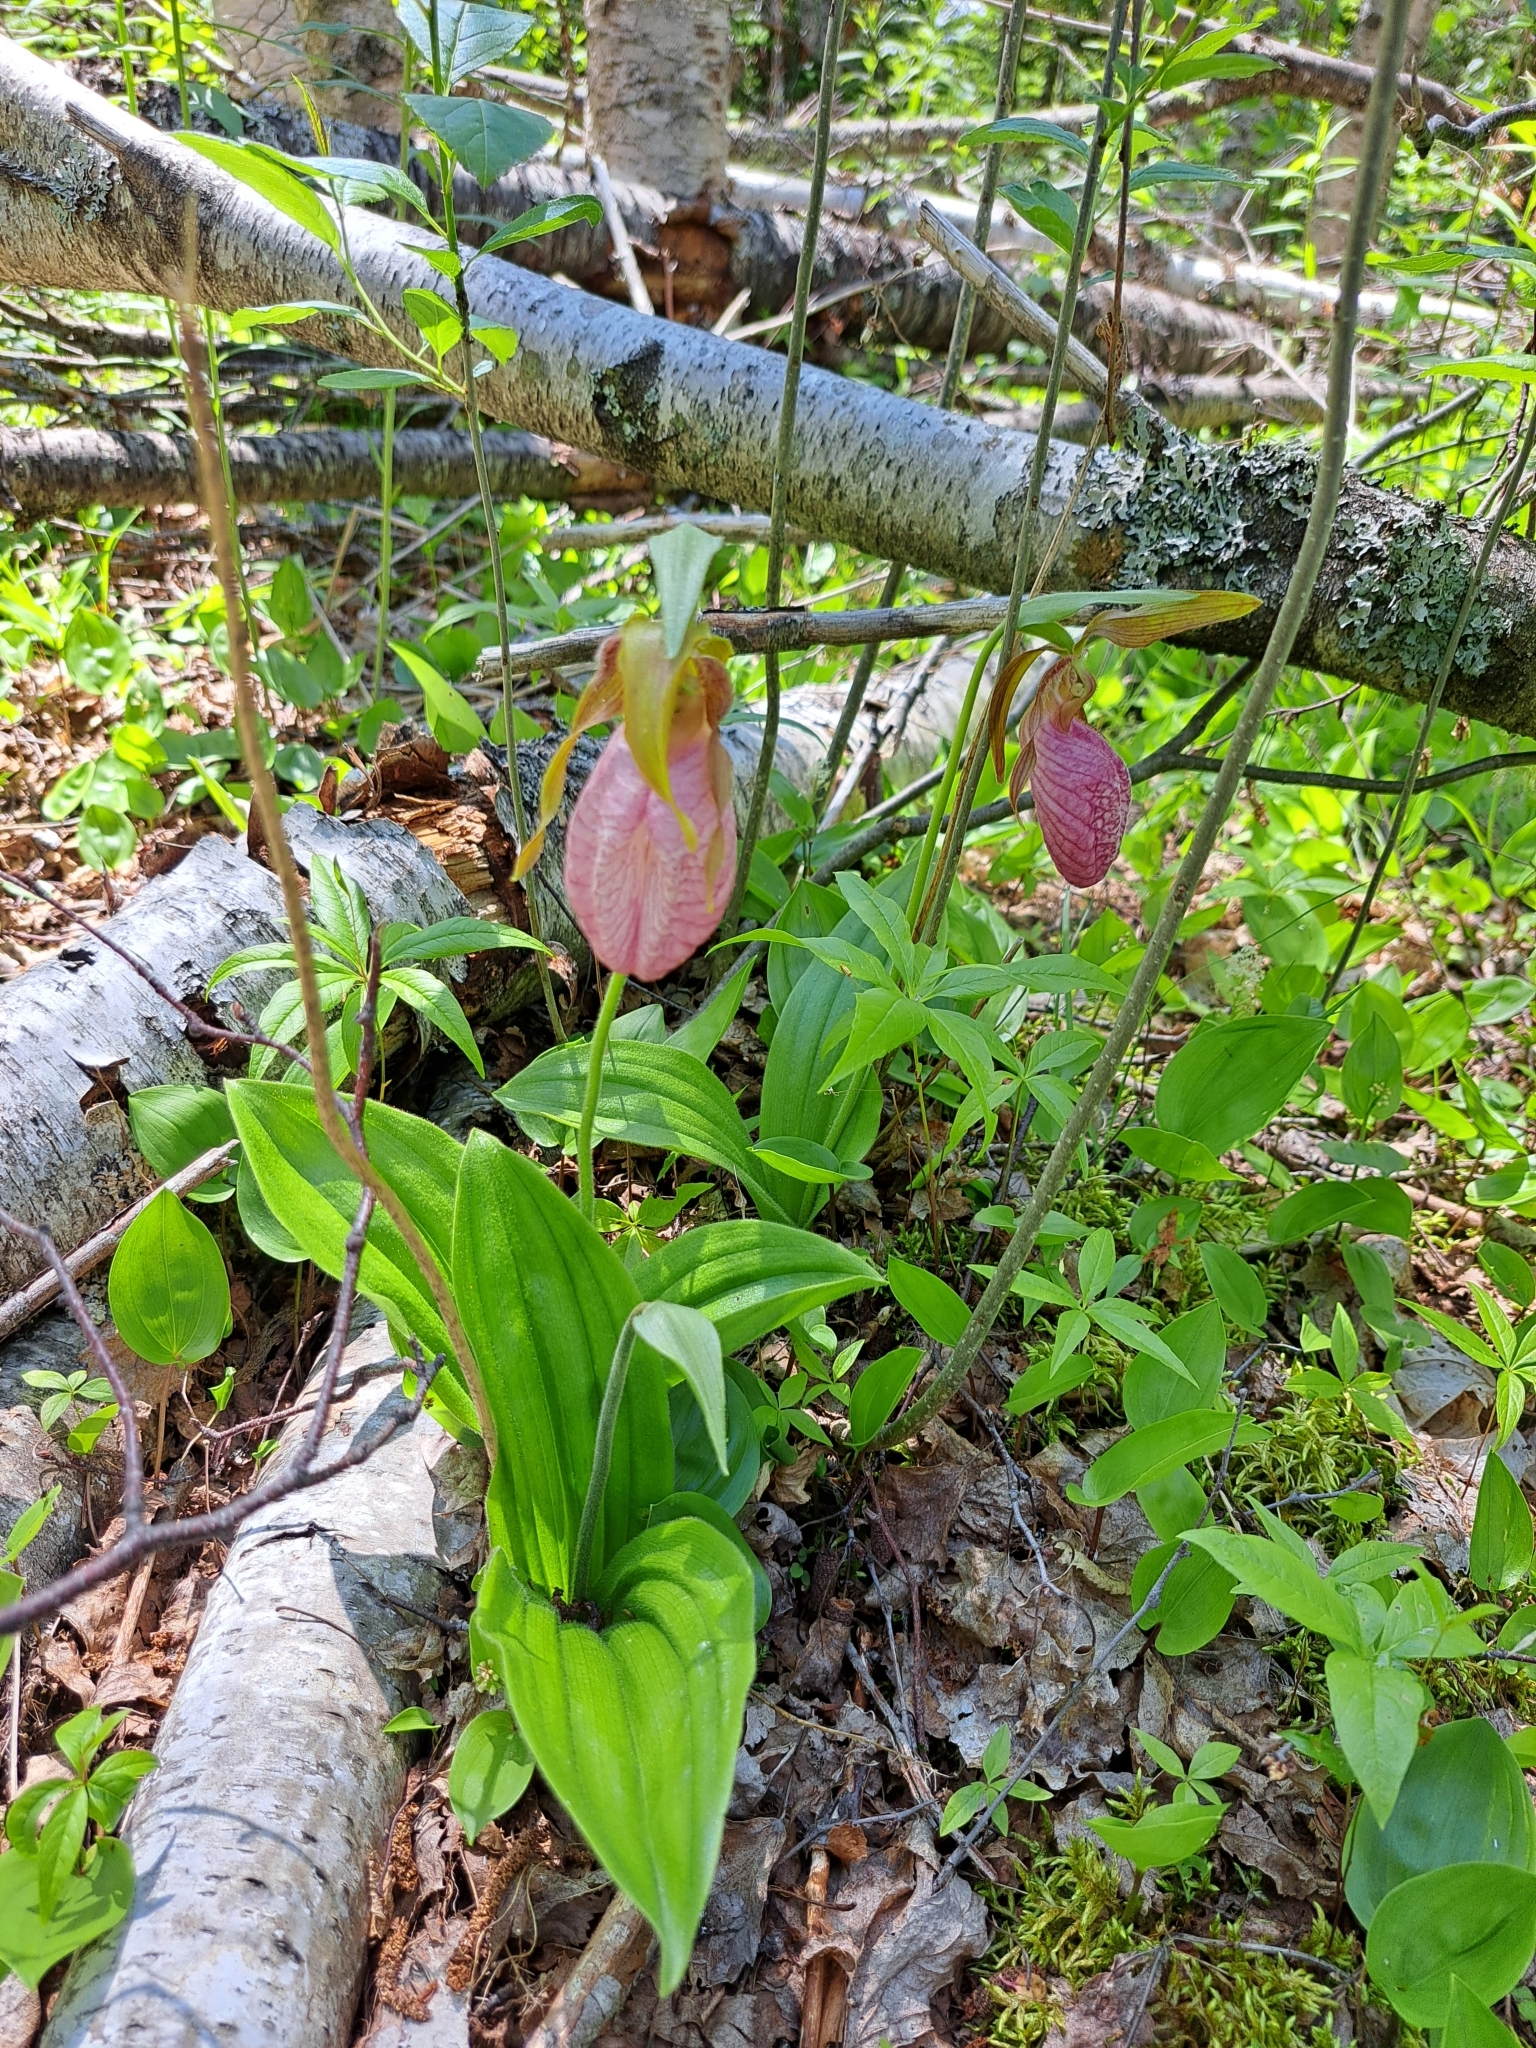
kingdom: Plantae
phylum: Tracheophyta
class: Liliopsida
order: Asparagales
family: Orchidaceae
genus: Cypripedium
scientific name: Cypripedium acaule
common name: Pink lady's-slipper
